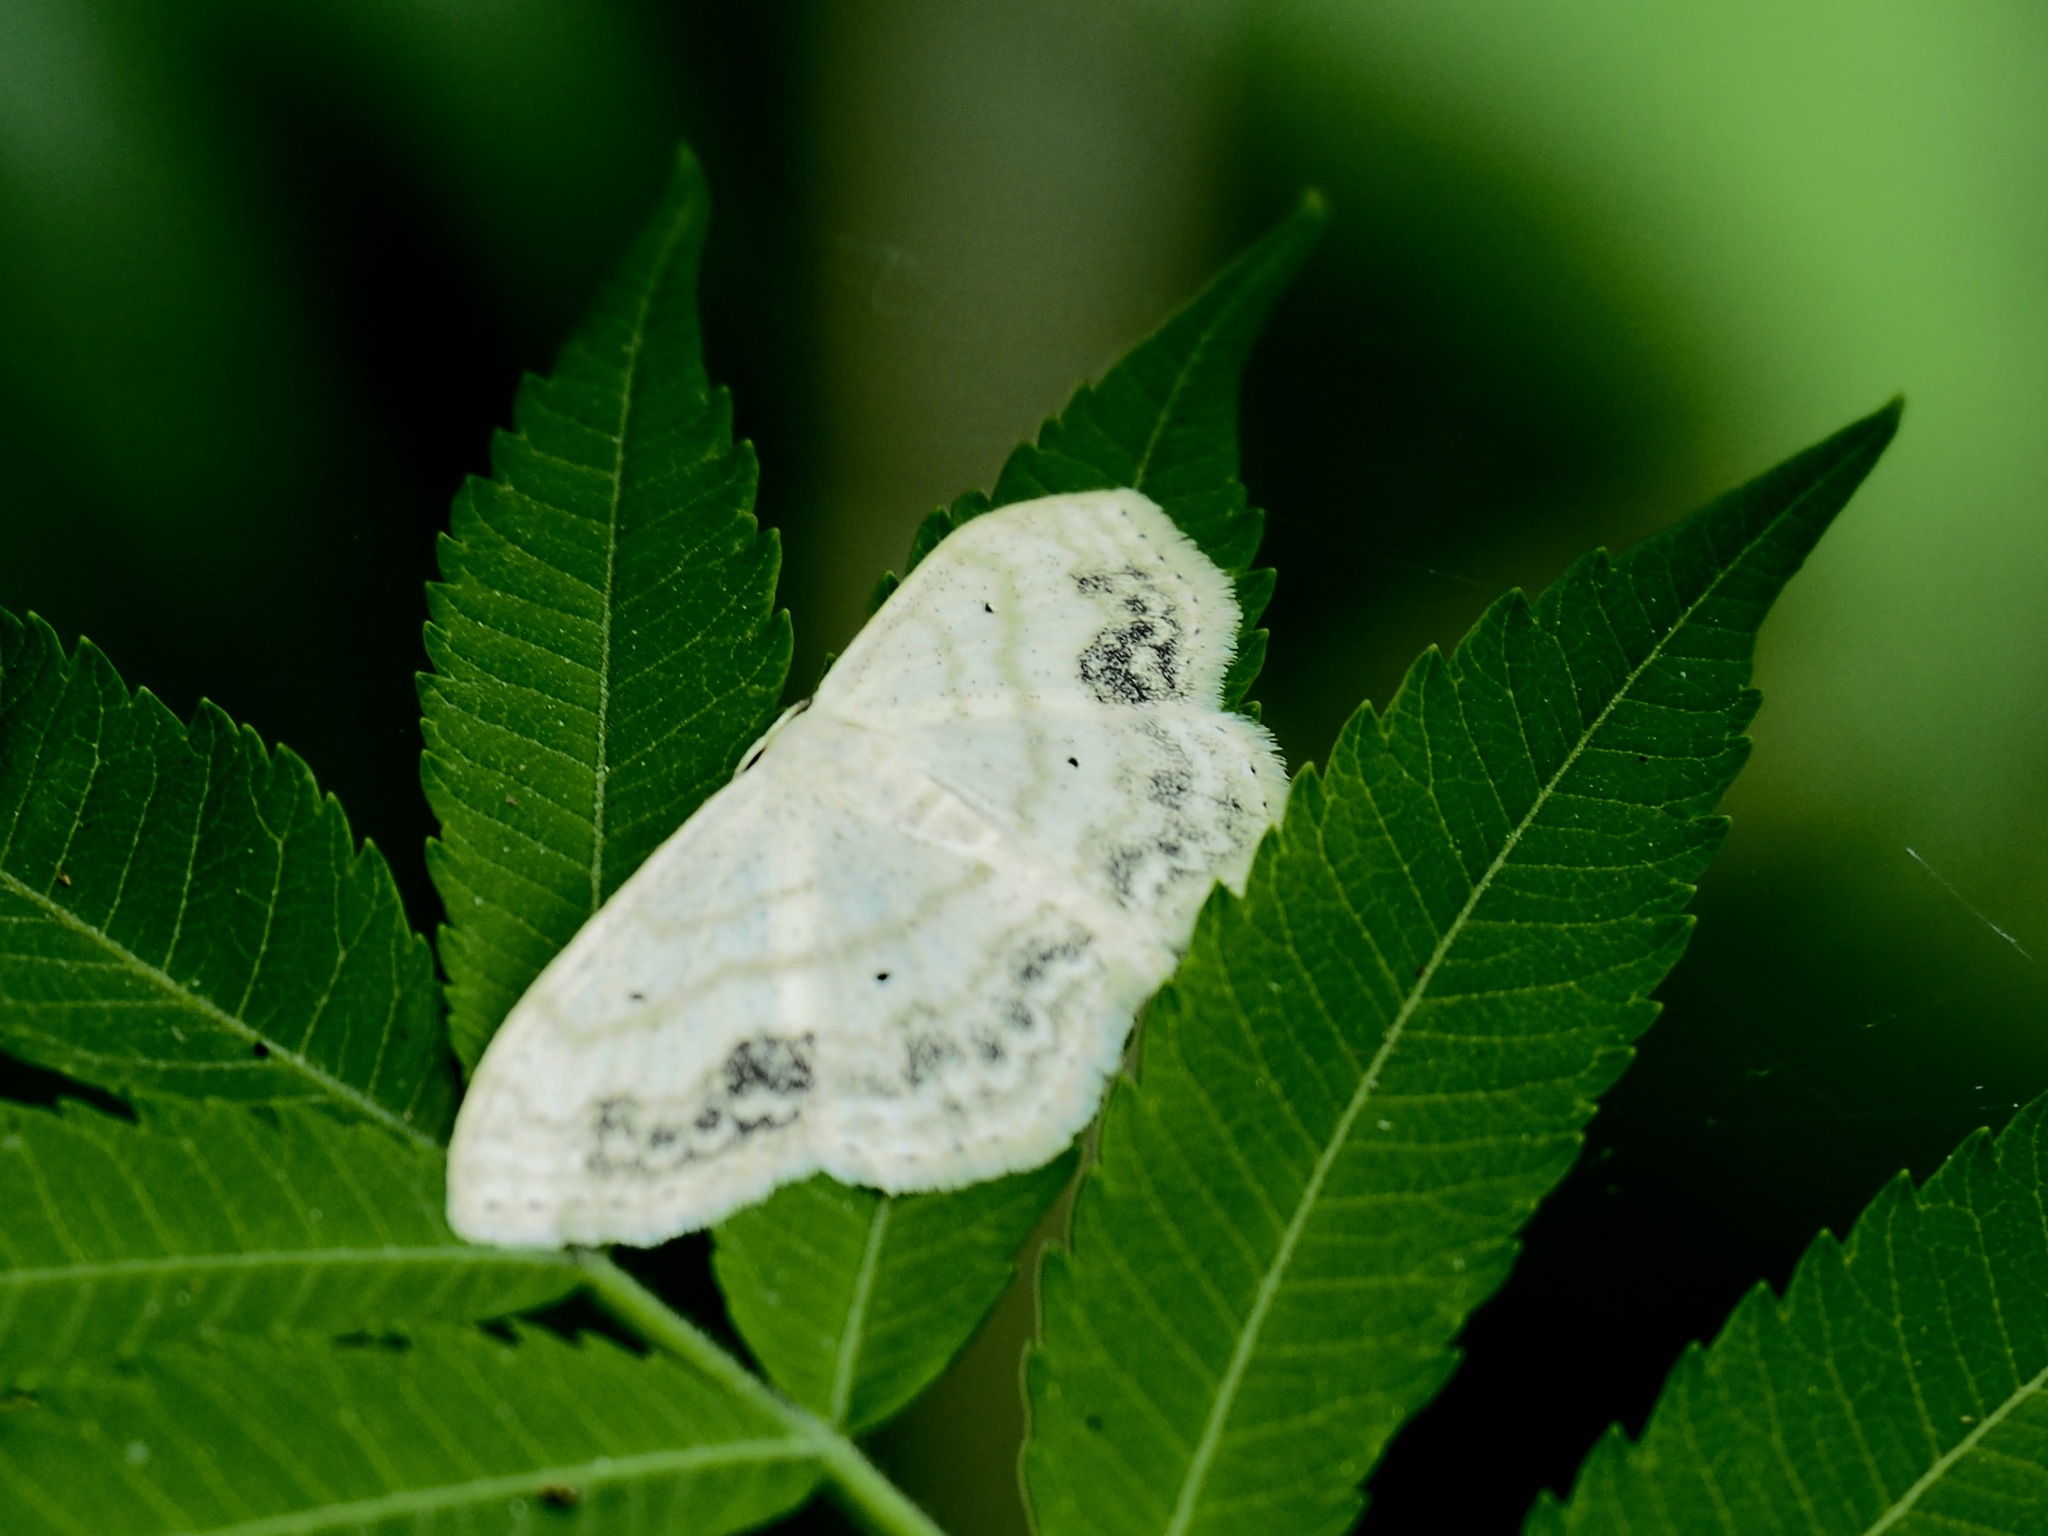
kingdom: Animalia
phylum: Arthropoda
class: Insecta
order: Lepidoptera
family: Geometridae
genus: Scopula
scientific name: Scopula limboundata
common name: Large lace border
